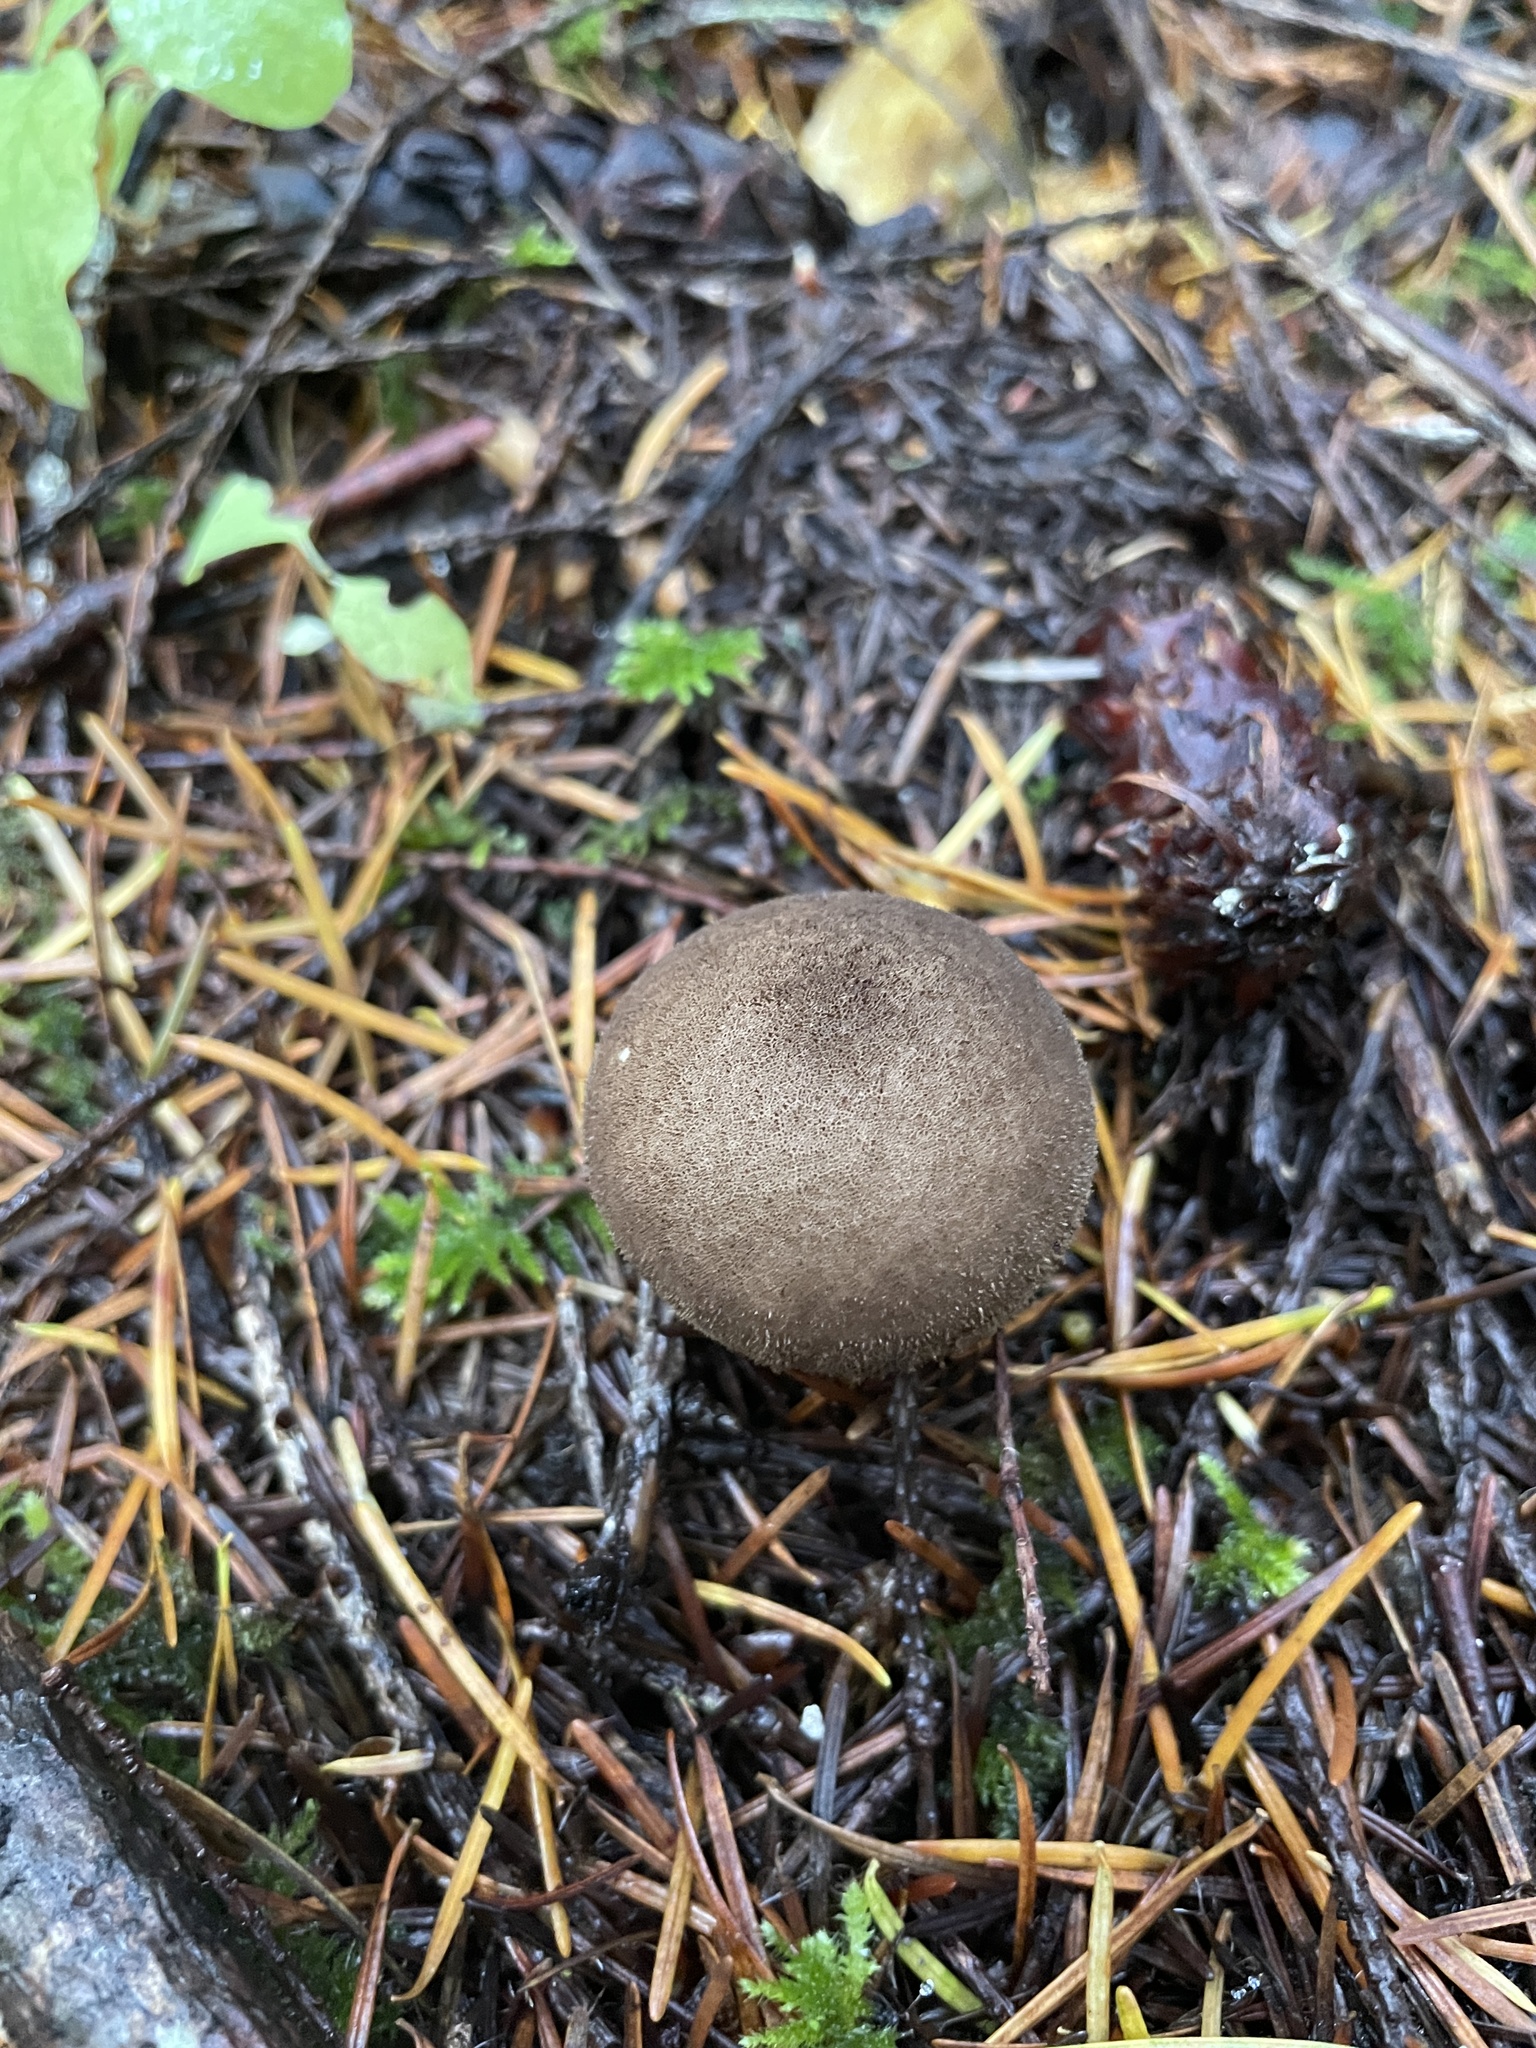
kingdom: Fungi
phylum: Basidiomycota
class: Agaricomycetes
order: Agaricales
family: Lycoperdaceae
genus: Lycoperdon
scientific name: Lycoperdon umbrinum
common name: Umber-brown puffball
